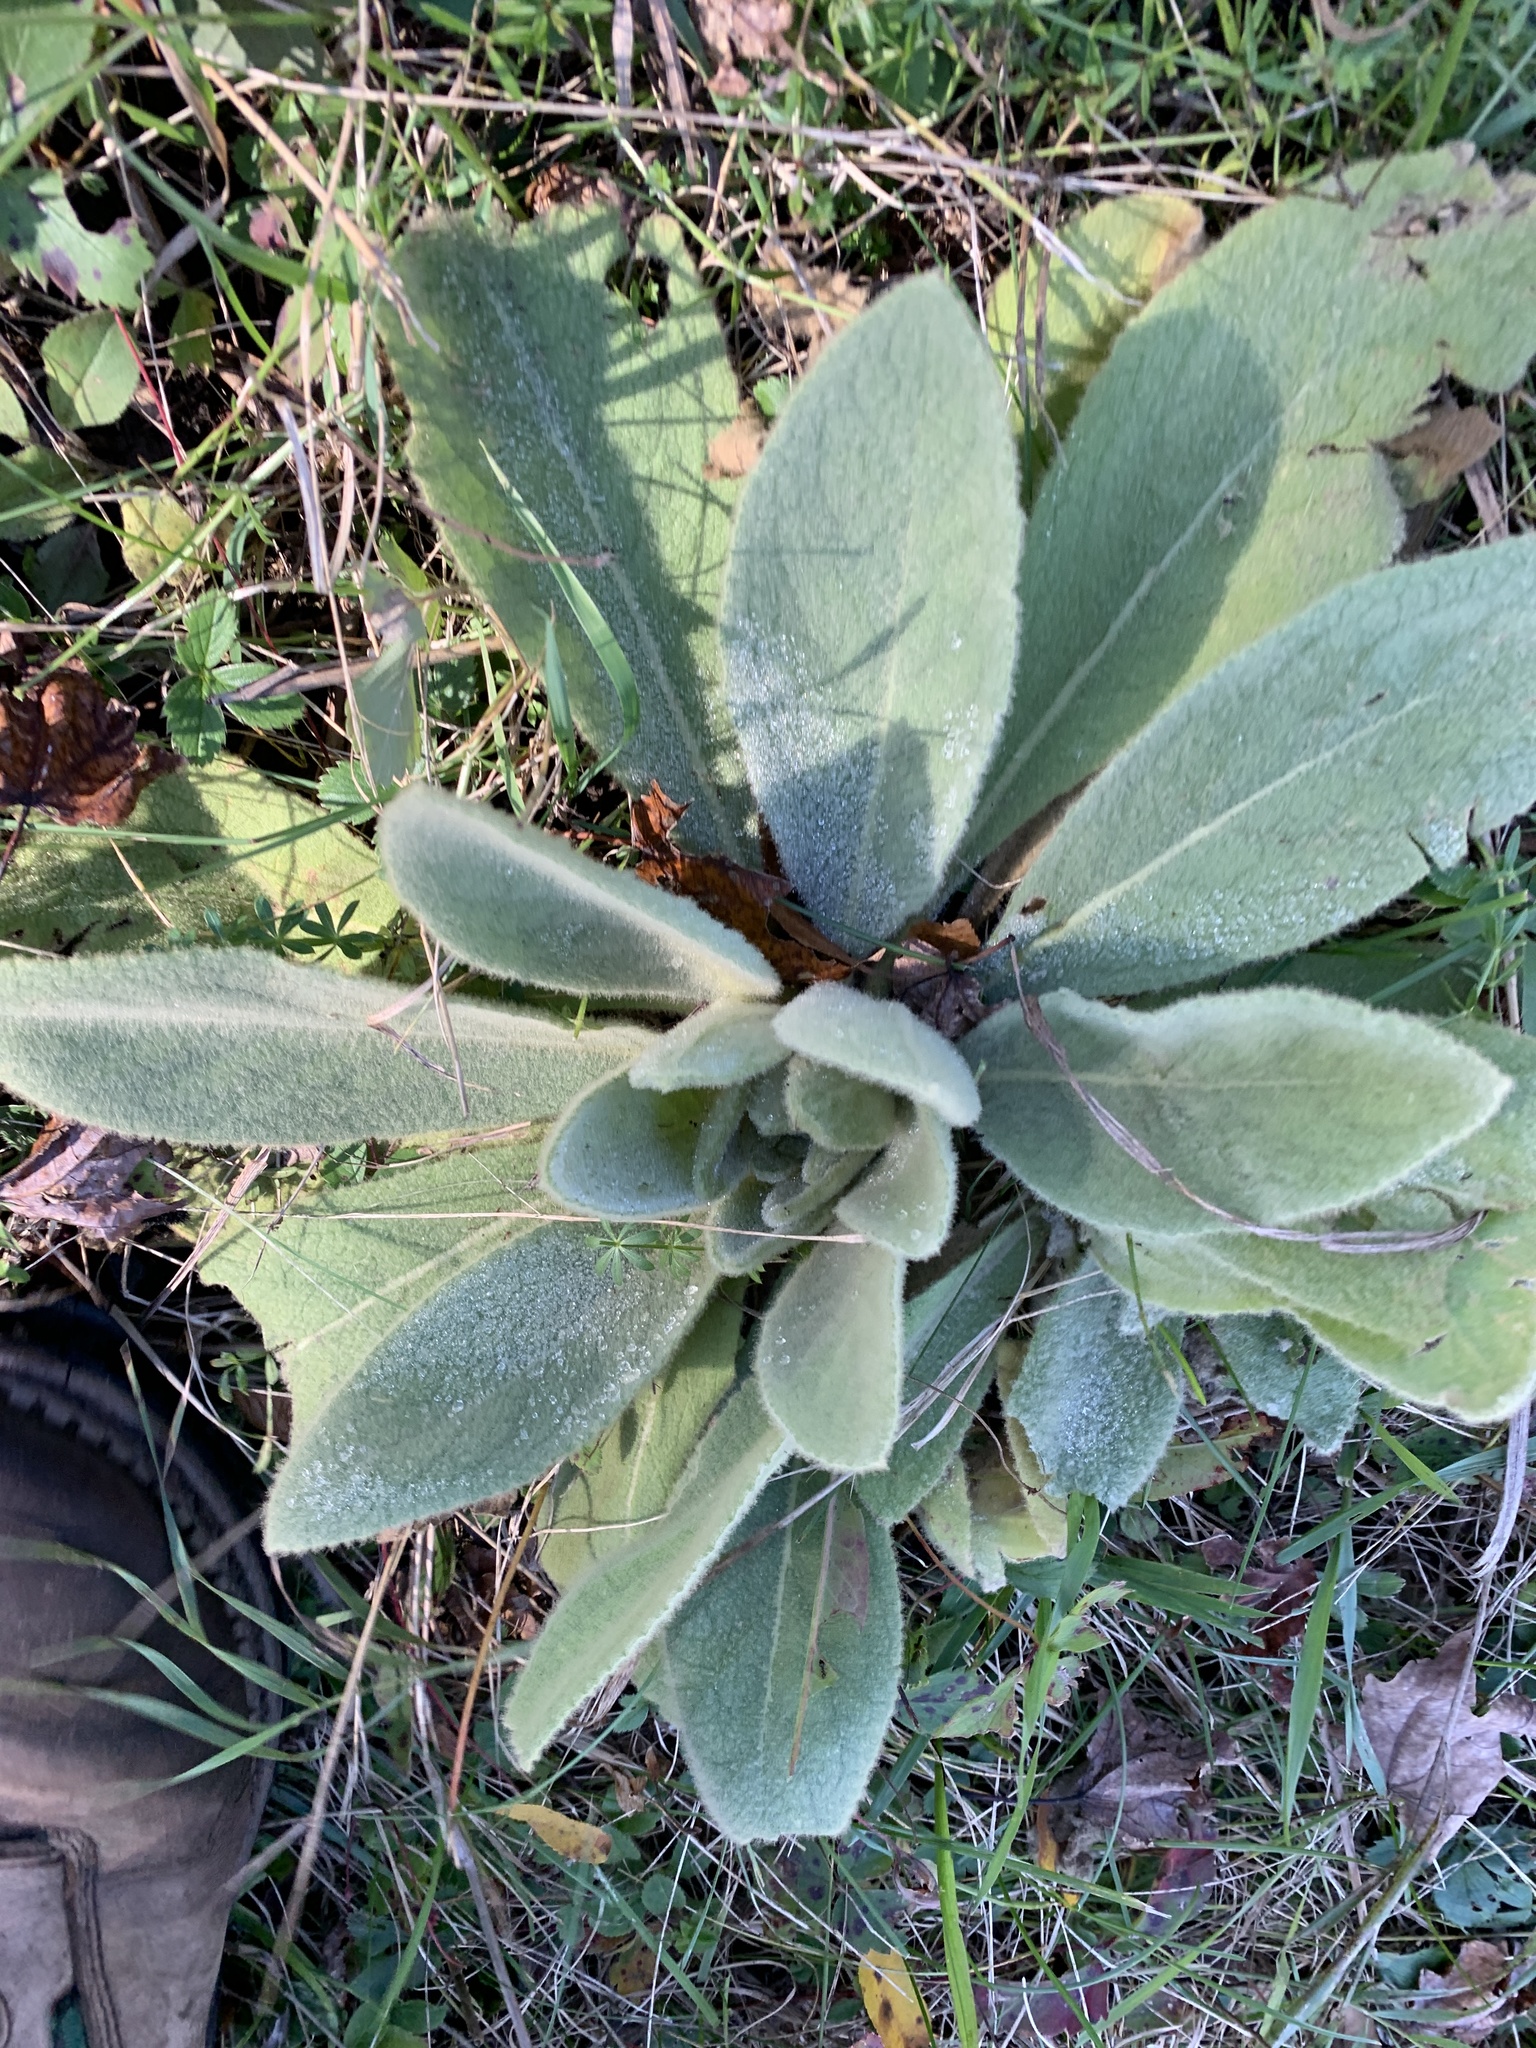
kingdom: Plantae
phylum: Tracheophyta
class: Magnoliopsida
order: Lamiales
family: Scrophulariaceae
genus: Verbascum
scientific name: Verbascum thapsus
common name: Common mullein
